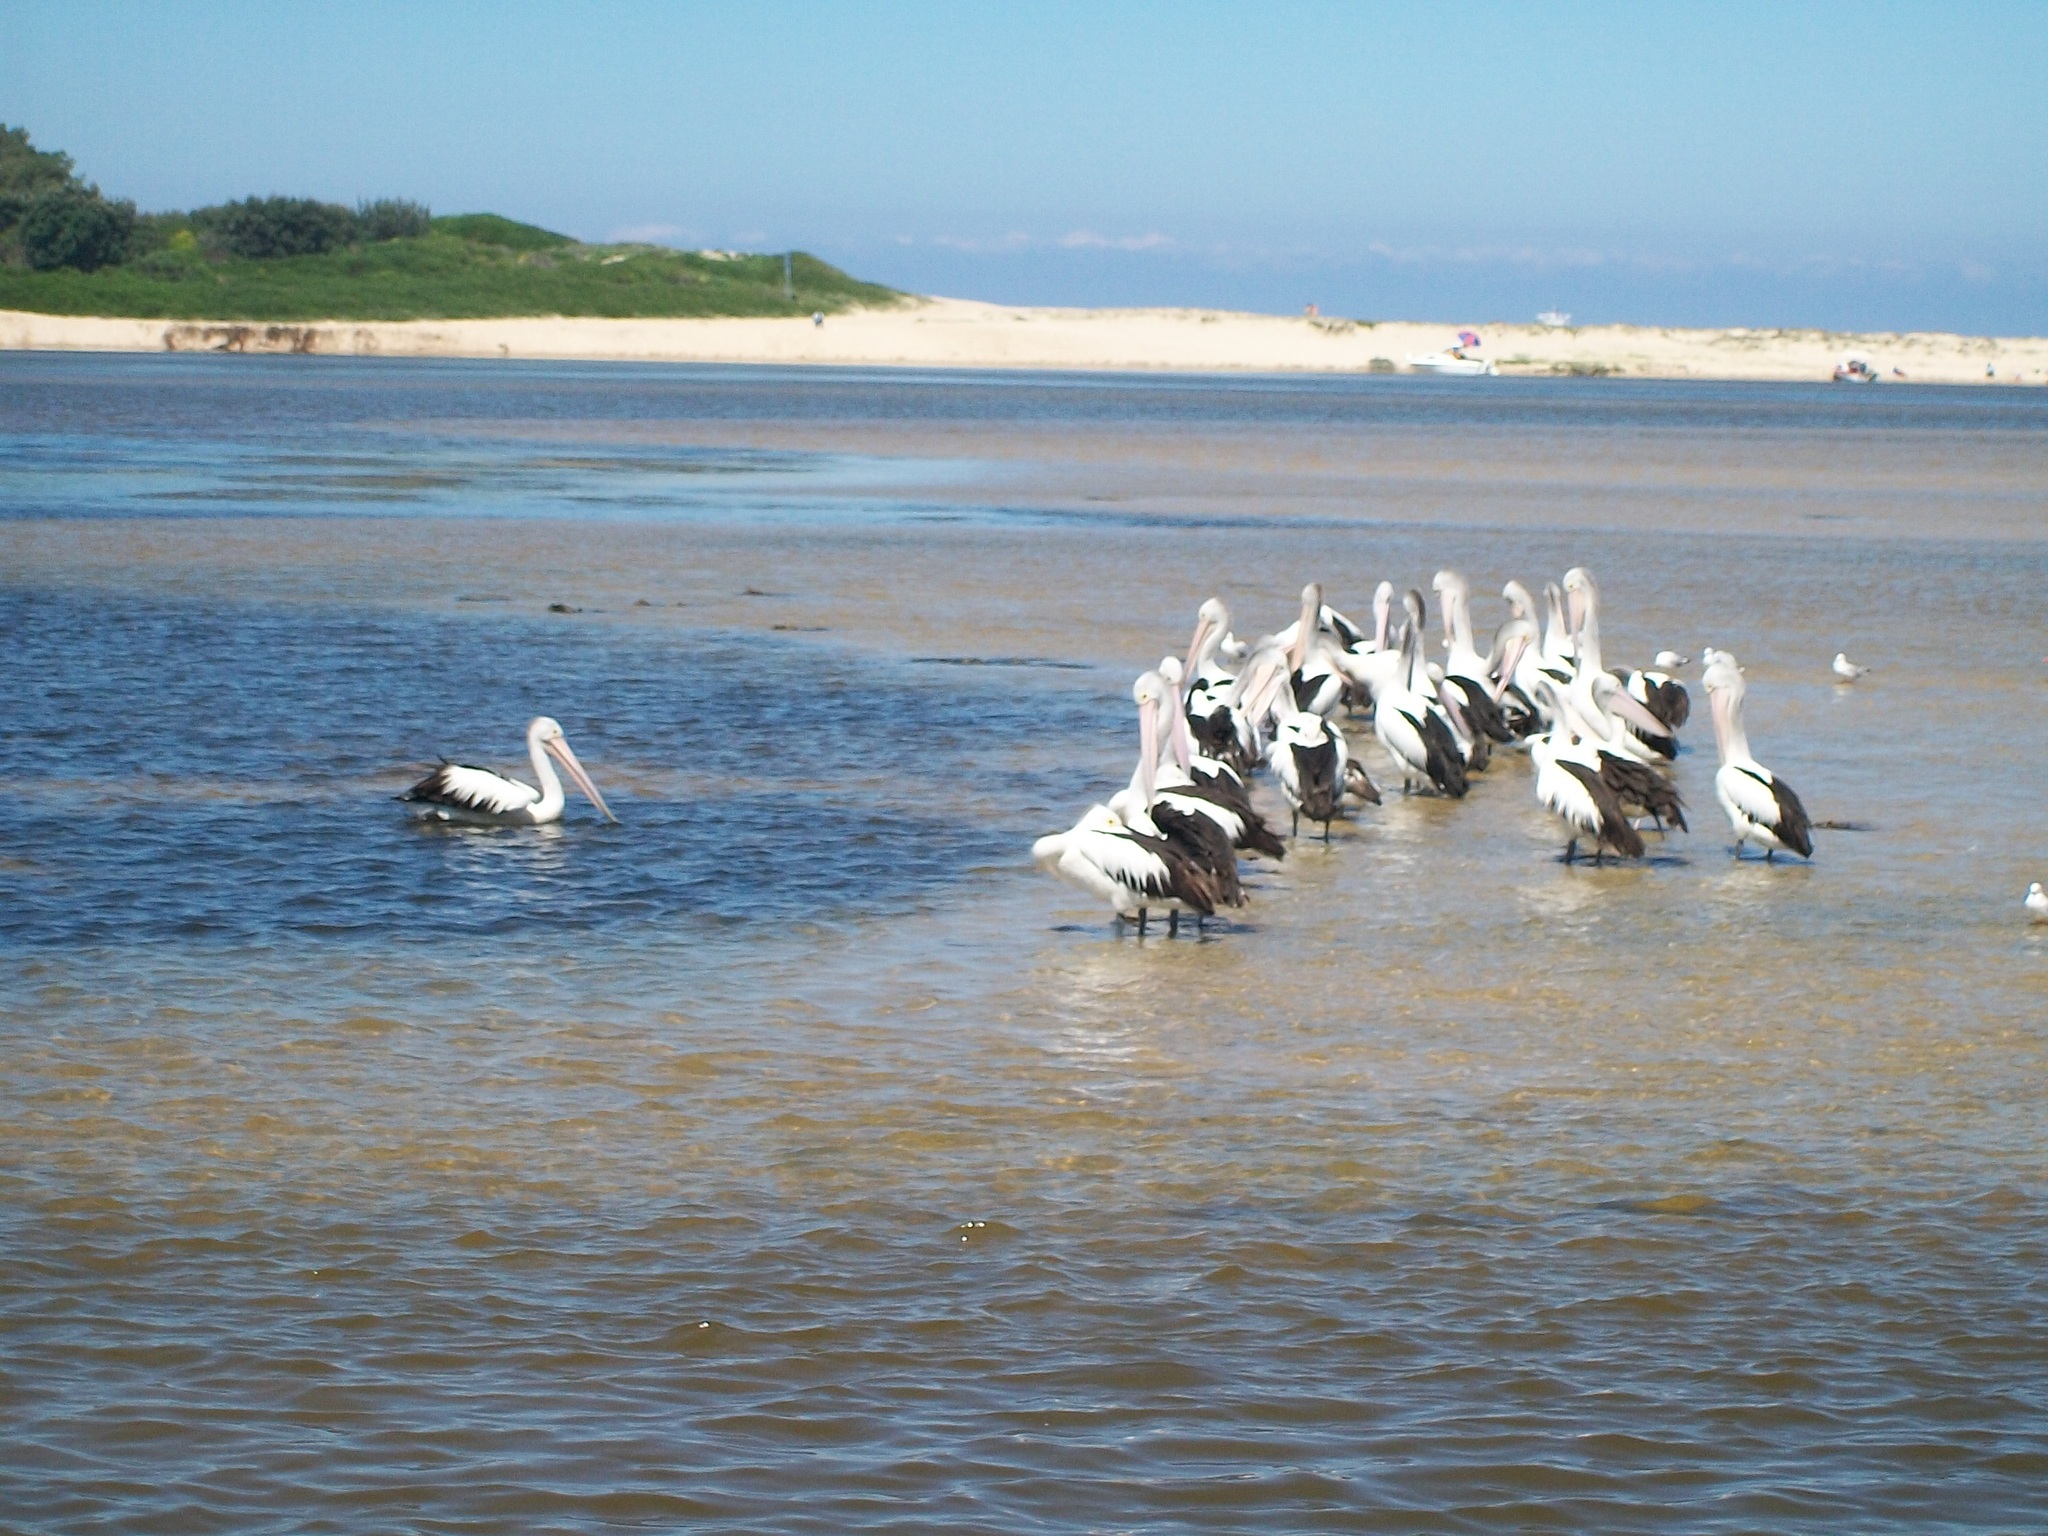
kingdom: Animalia
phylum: Chordata
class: Aves
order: Pelecaniformes
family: Pelecanidae
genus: Pelecanus
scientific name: Pelecanus conspicillatus
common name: Australian pelican
